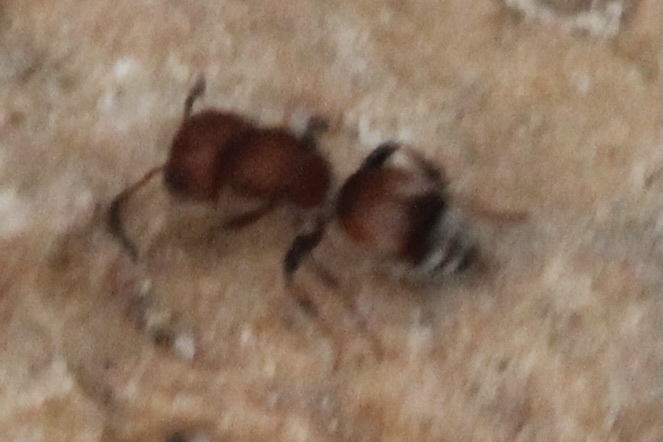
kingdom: Animalia
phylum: Arthropoda
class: Insecta
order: Hymenoptera
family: Mutillidae
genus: Pseudomethoca
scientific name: Pseudomethoca
